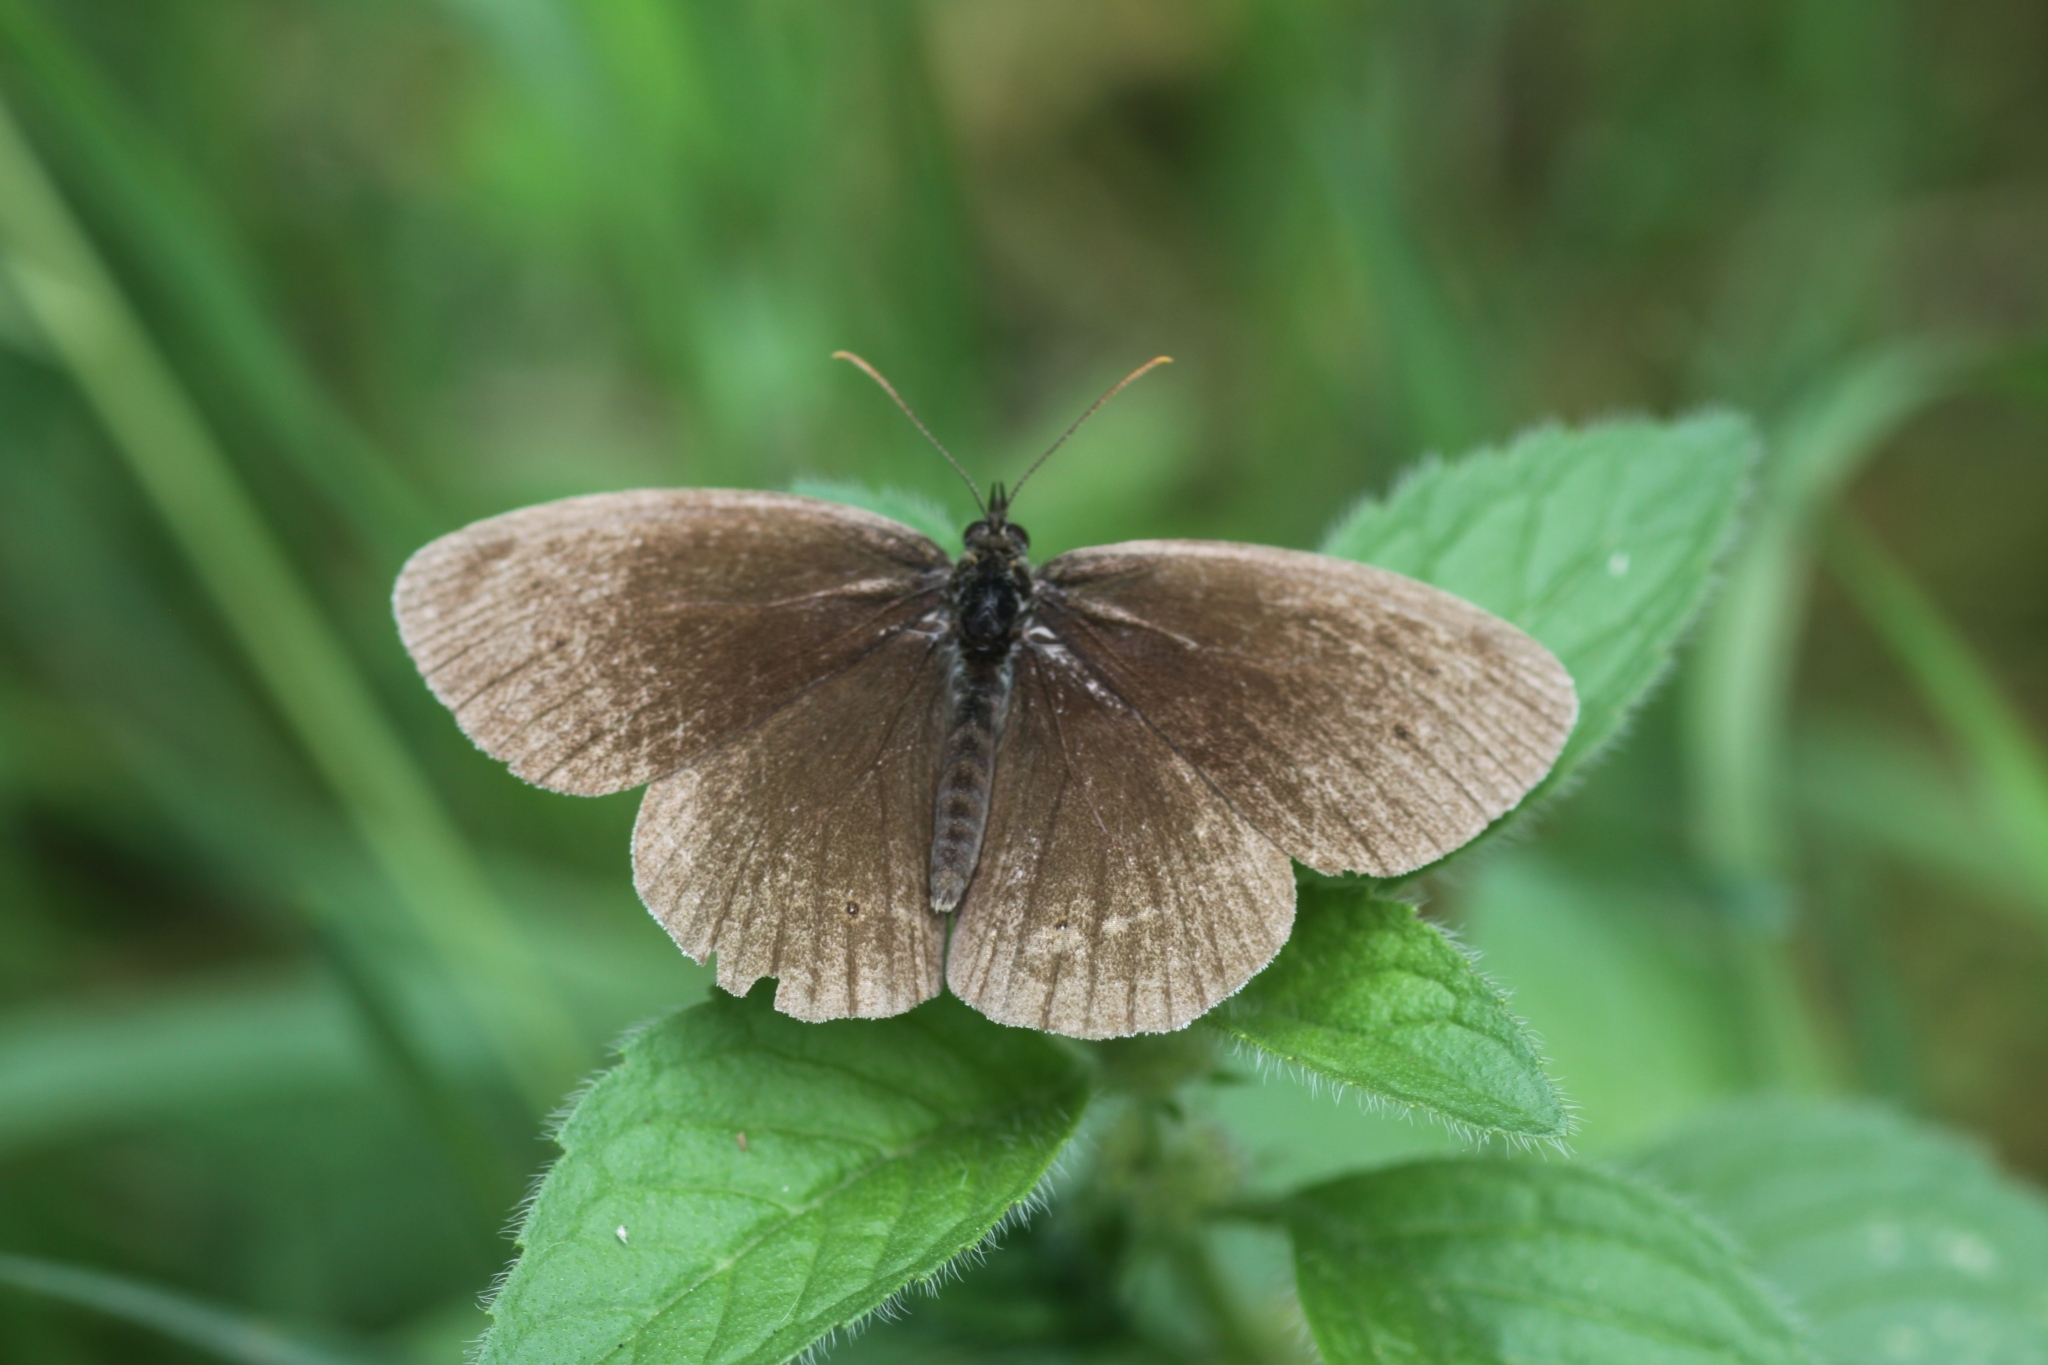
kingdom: Animalia
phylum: Arthropoda
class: Insecta
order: Lepidoptera
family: Nymphalidae
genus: Aphantopus
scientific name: Aphantopus hyperantus
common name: Ringlet
